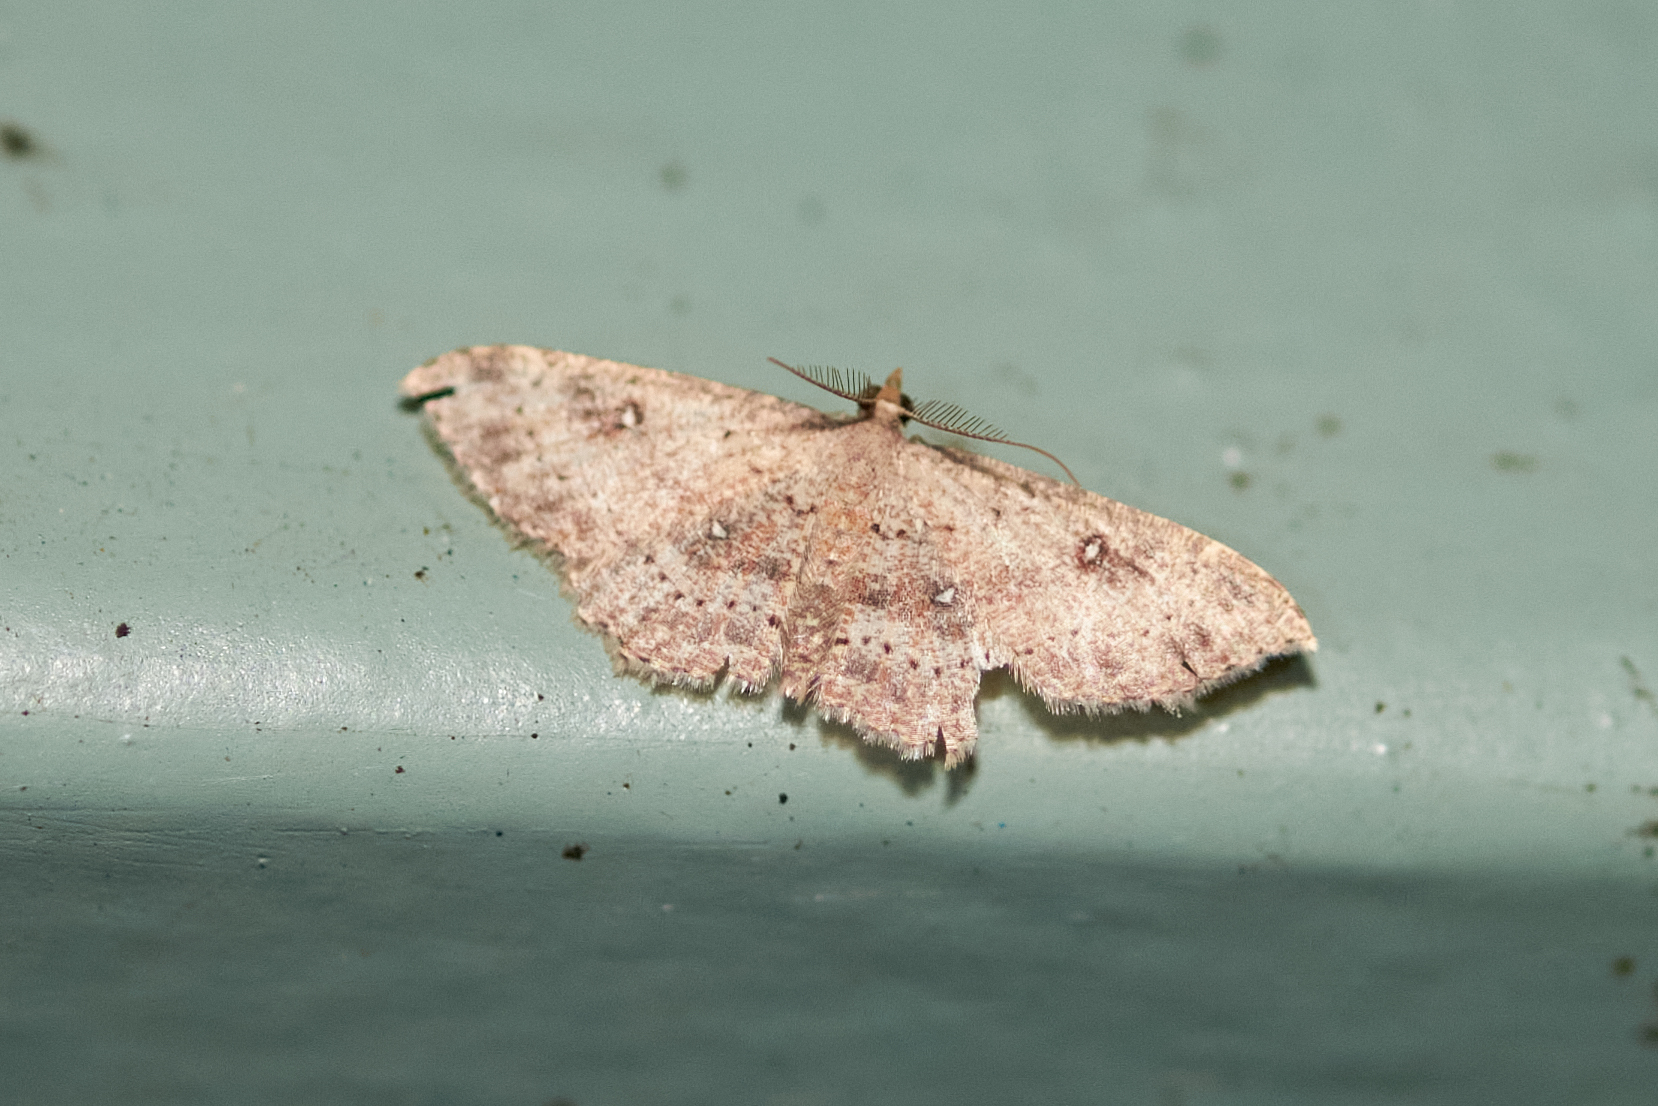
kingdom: Animalia
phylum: Arthropoda
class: Insecta
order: Lepidoptera
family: Geometridae
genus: Cyclophora
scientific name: Cyclophora nanaria
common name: Cankerworm
